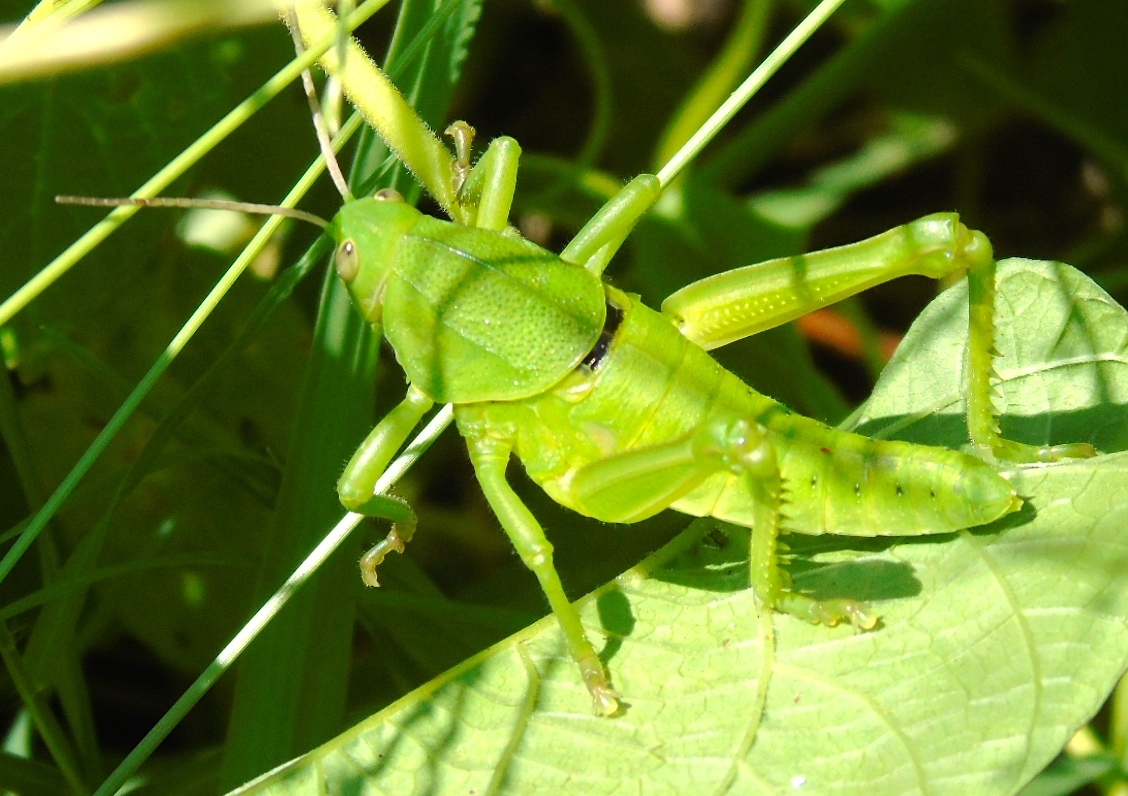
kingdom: Animalia
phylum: Arthropoda
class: Insecta
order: Orthoptera
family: Romaleidae
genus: Brachystola
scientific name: Brachystola
